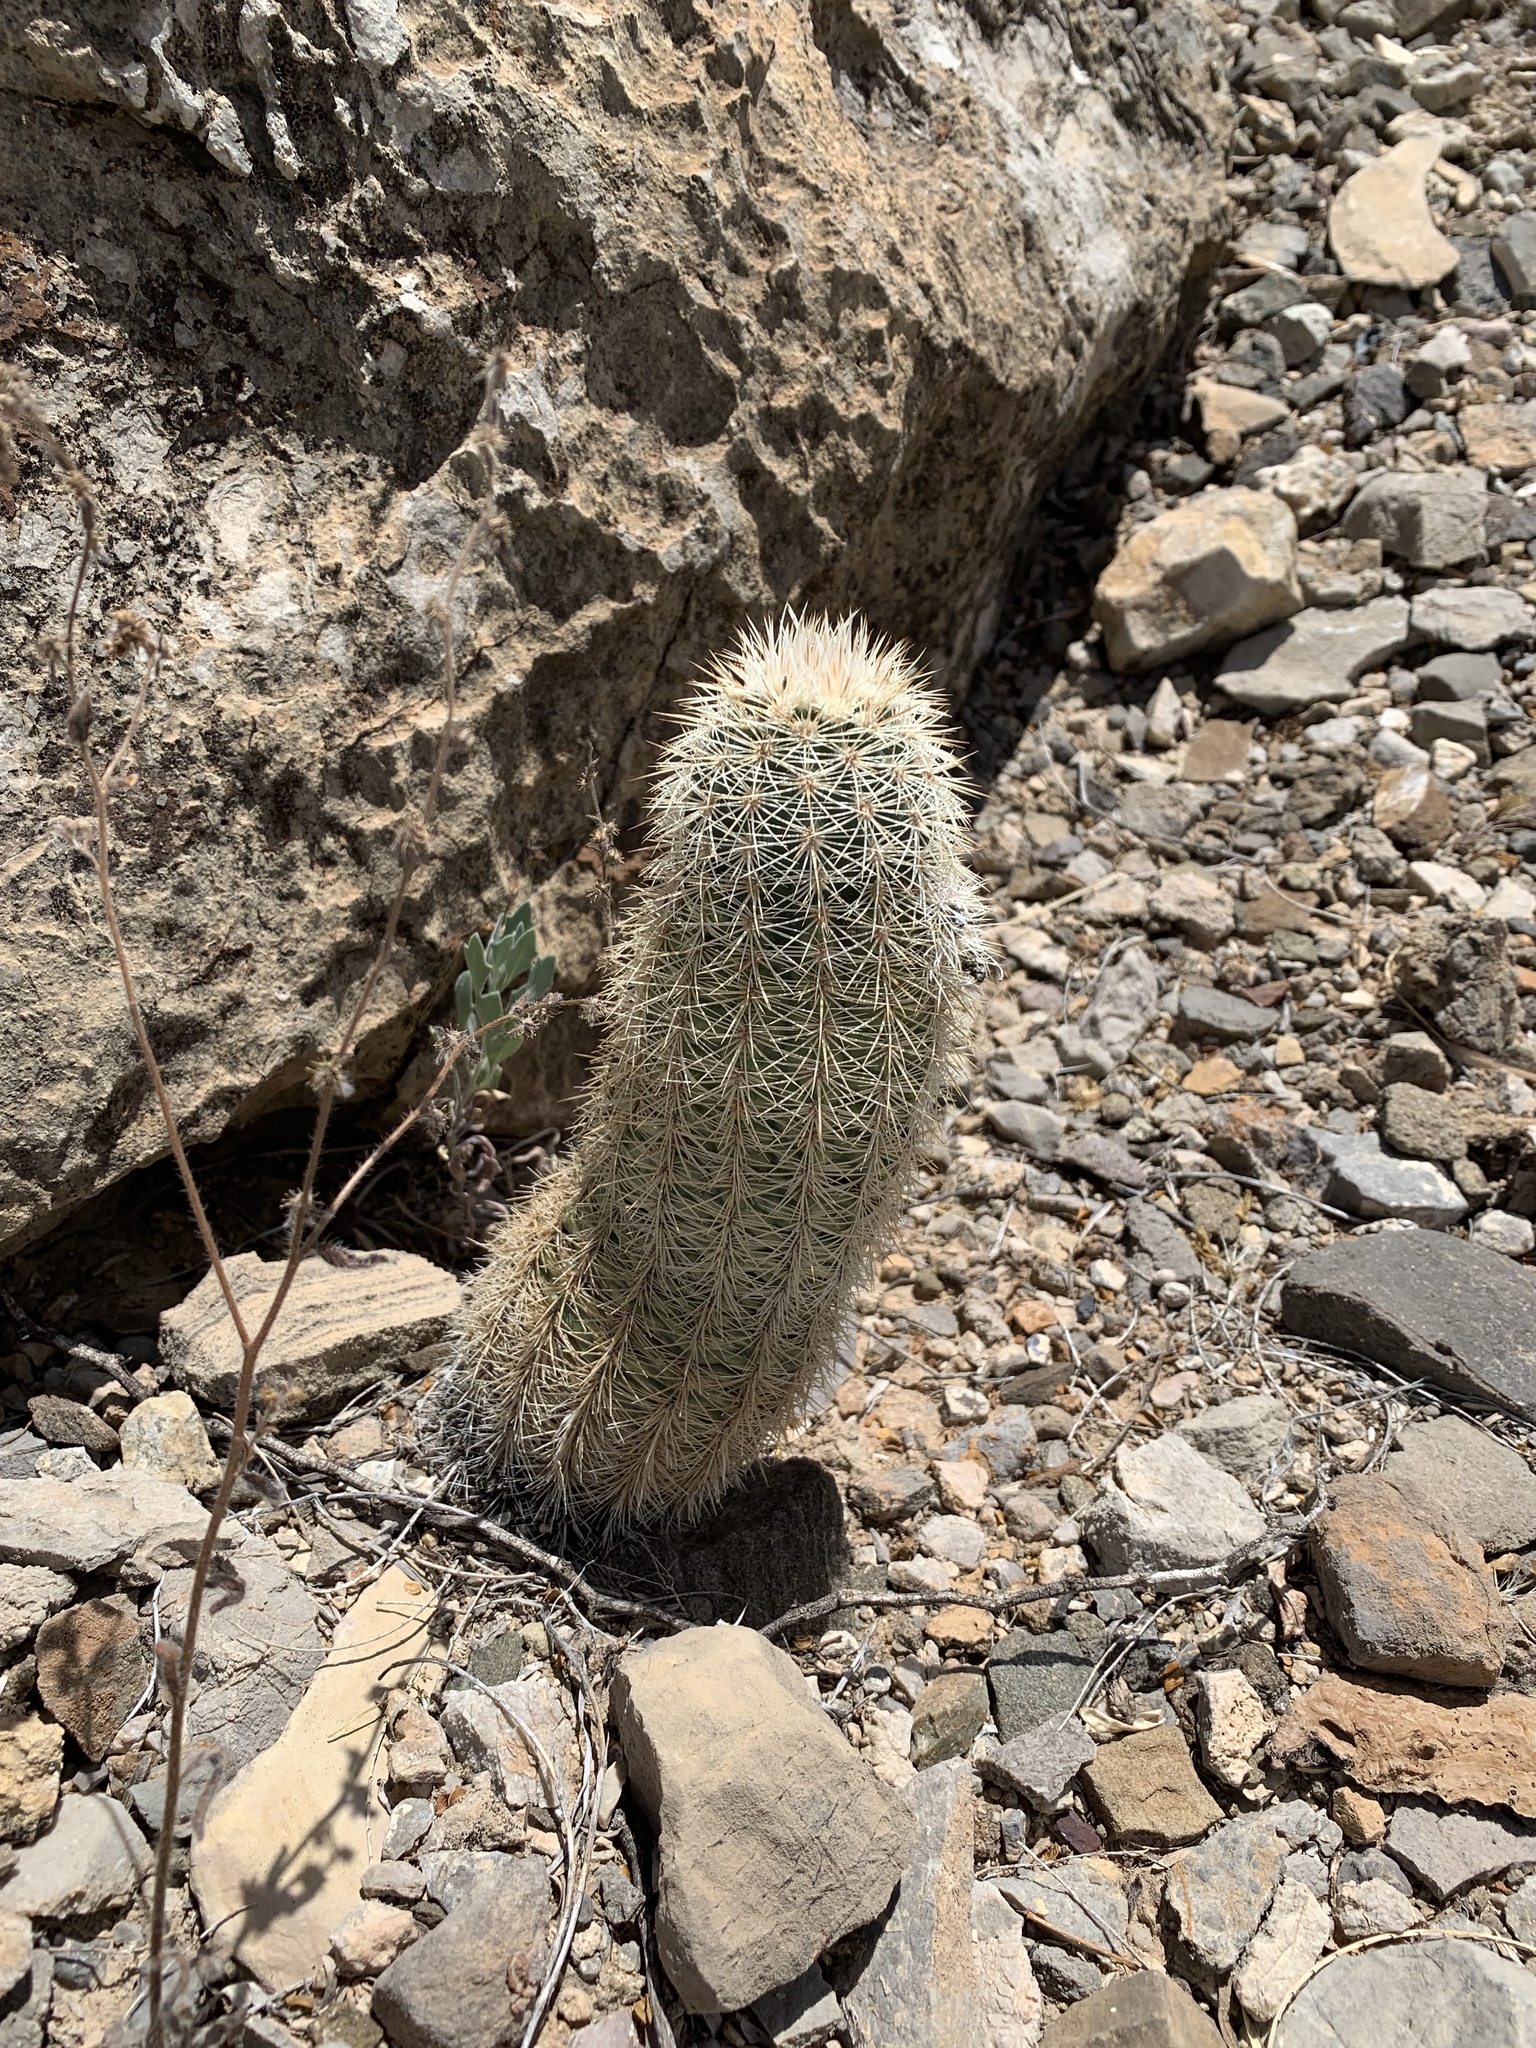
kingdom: Plantae
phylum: Tracheophyta
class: Magnoliopsida
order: Caryophyllales
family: Cactaceae
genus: Echinocereus
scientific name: Echinocereus dasyacanthus
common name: Spiny hedgehog cactus
